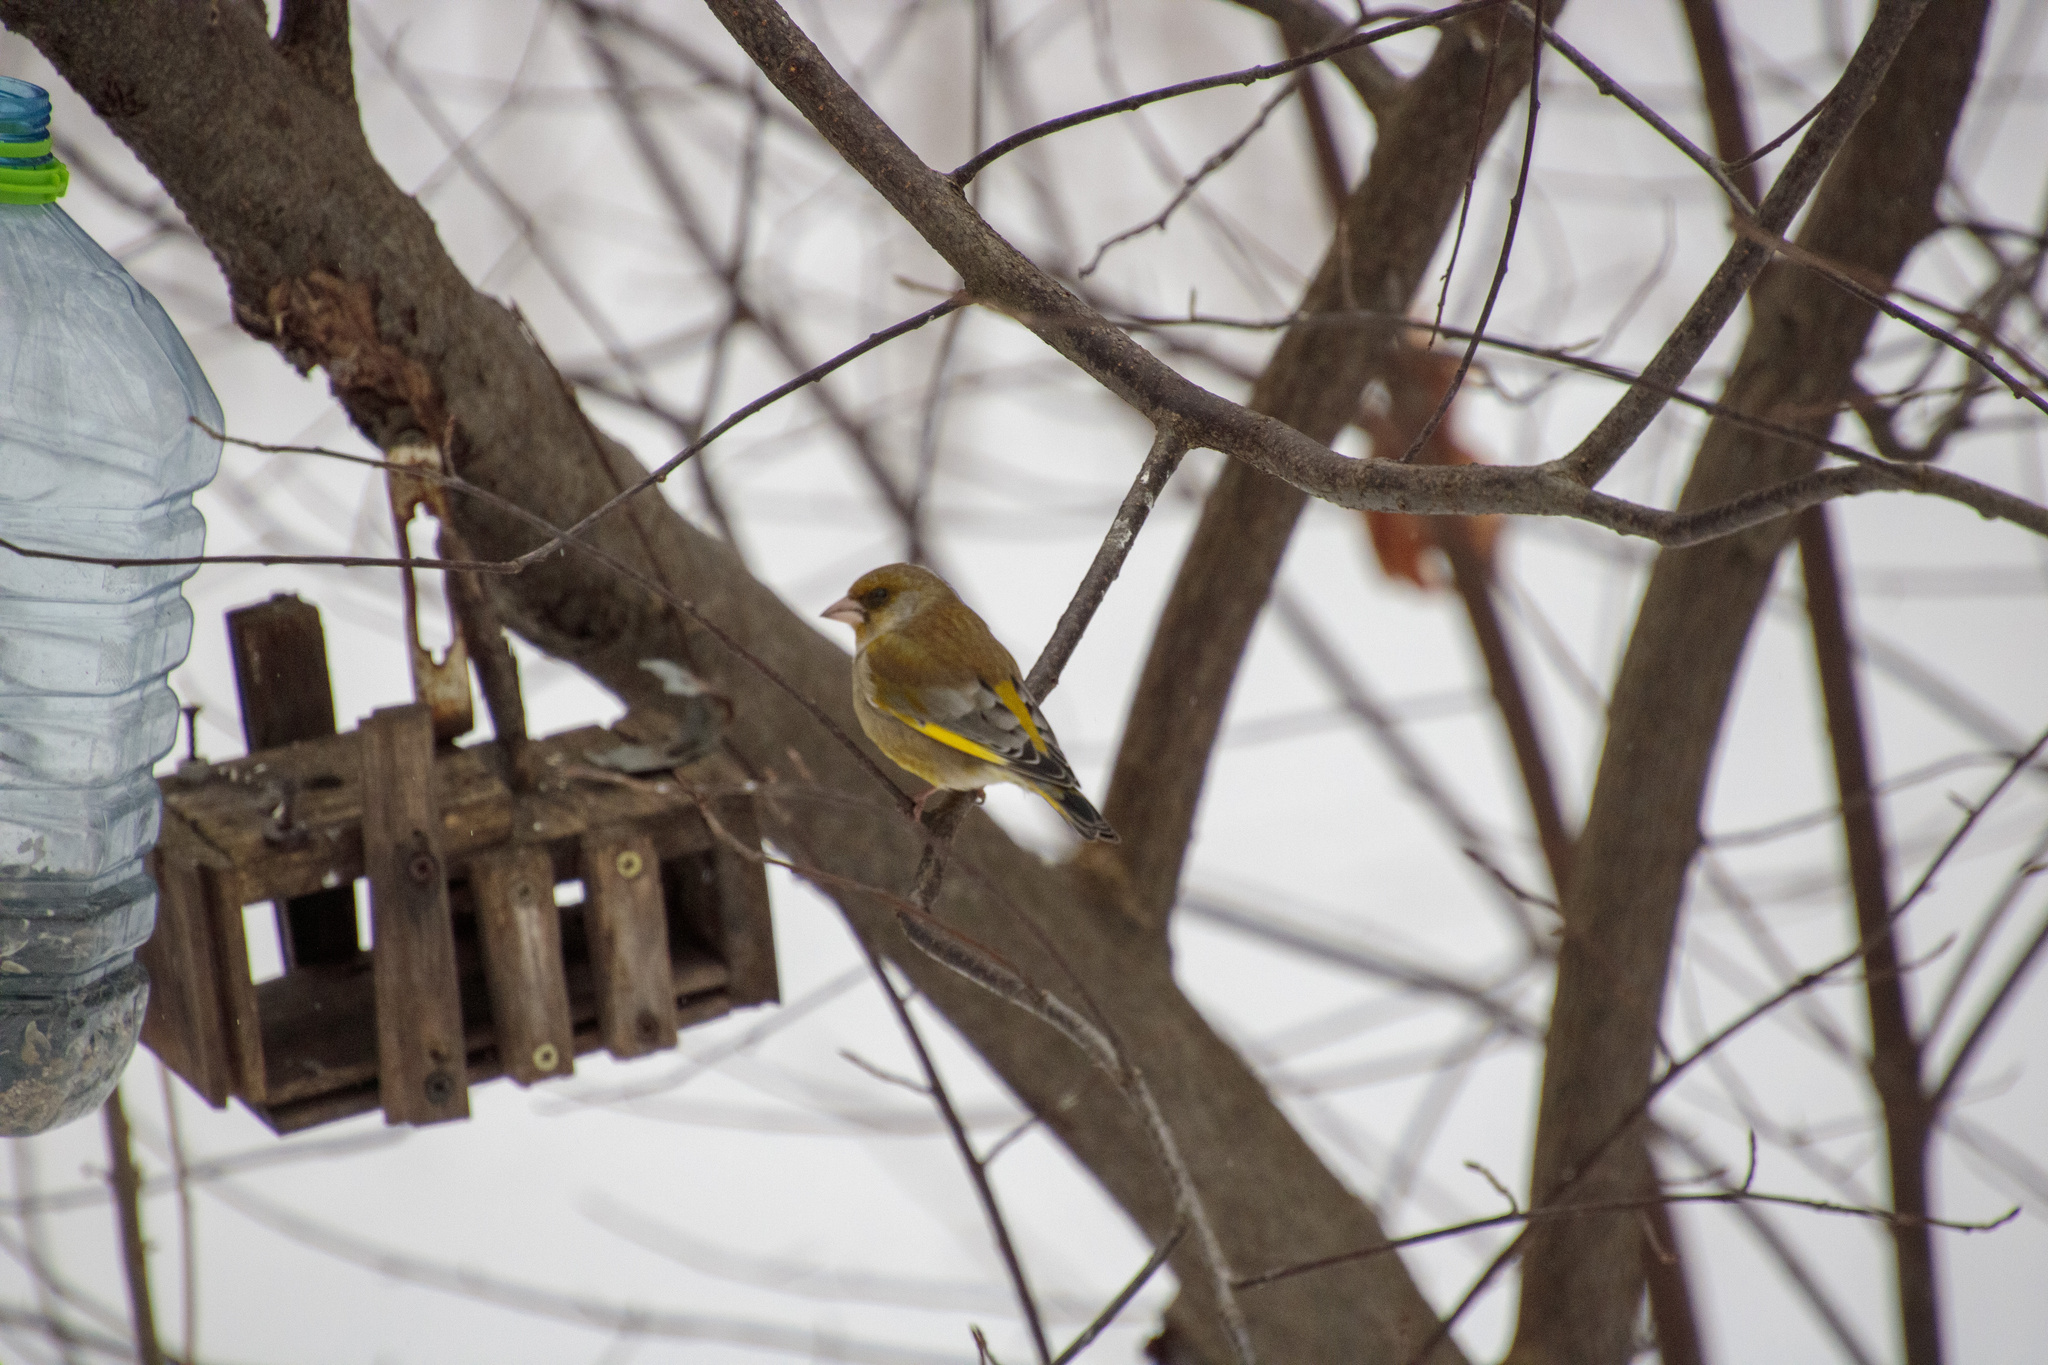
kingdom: Plantae
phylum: Tracheophyta
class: Liliopsida
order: Poales
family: Poaceae
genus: Chloris
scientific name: Chloris chloris
